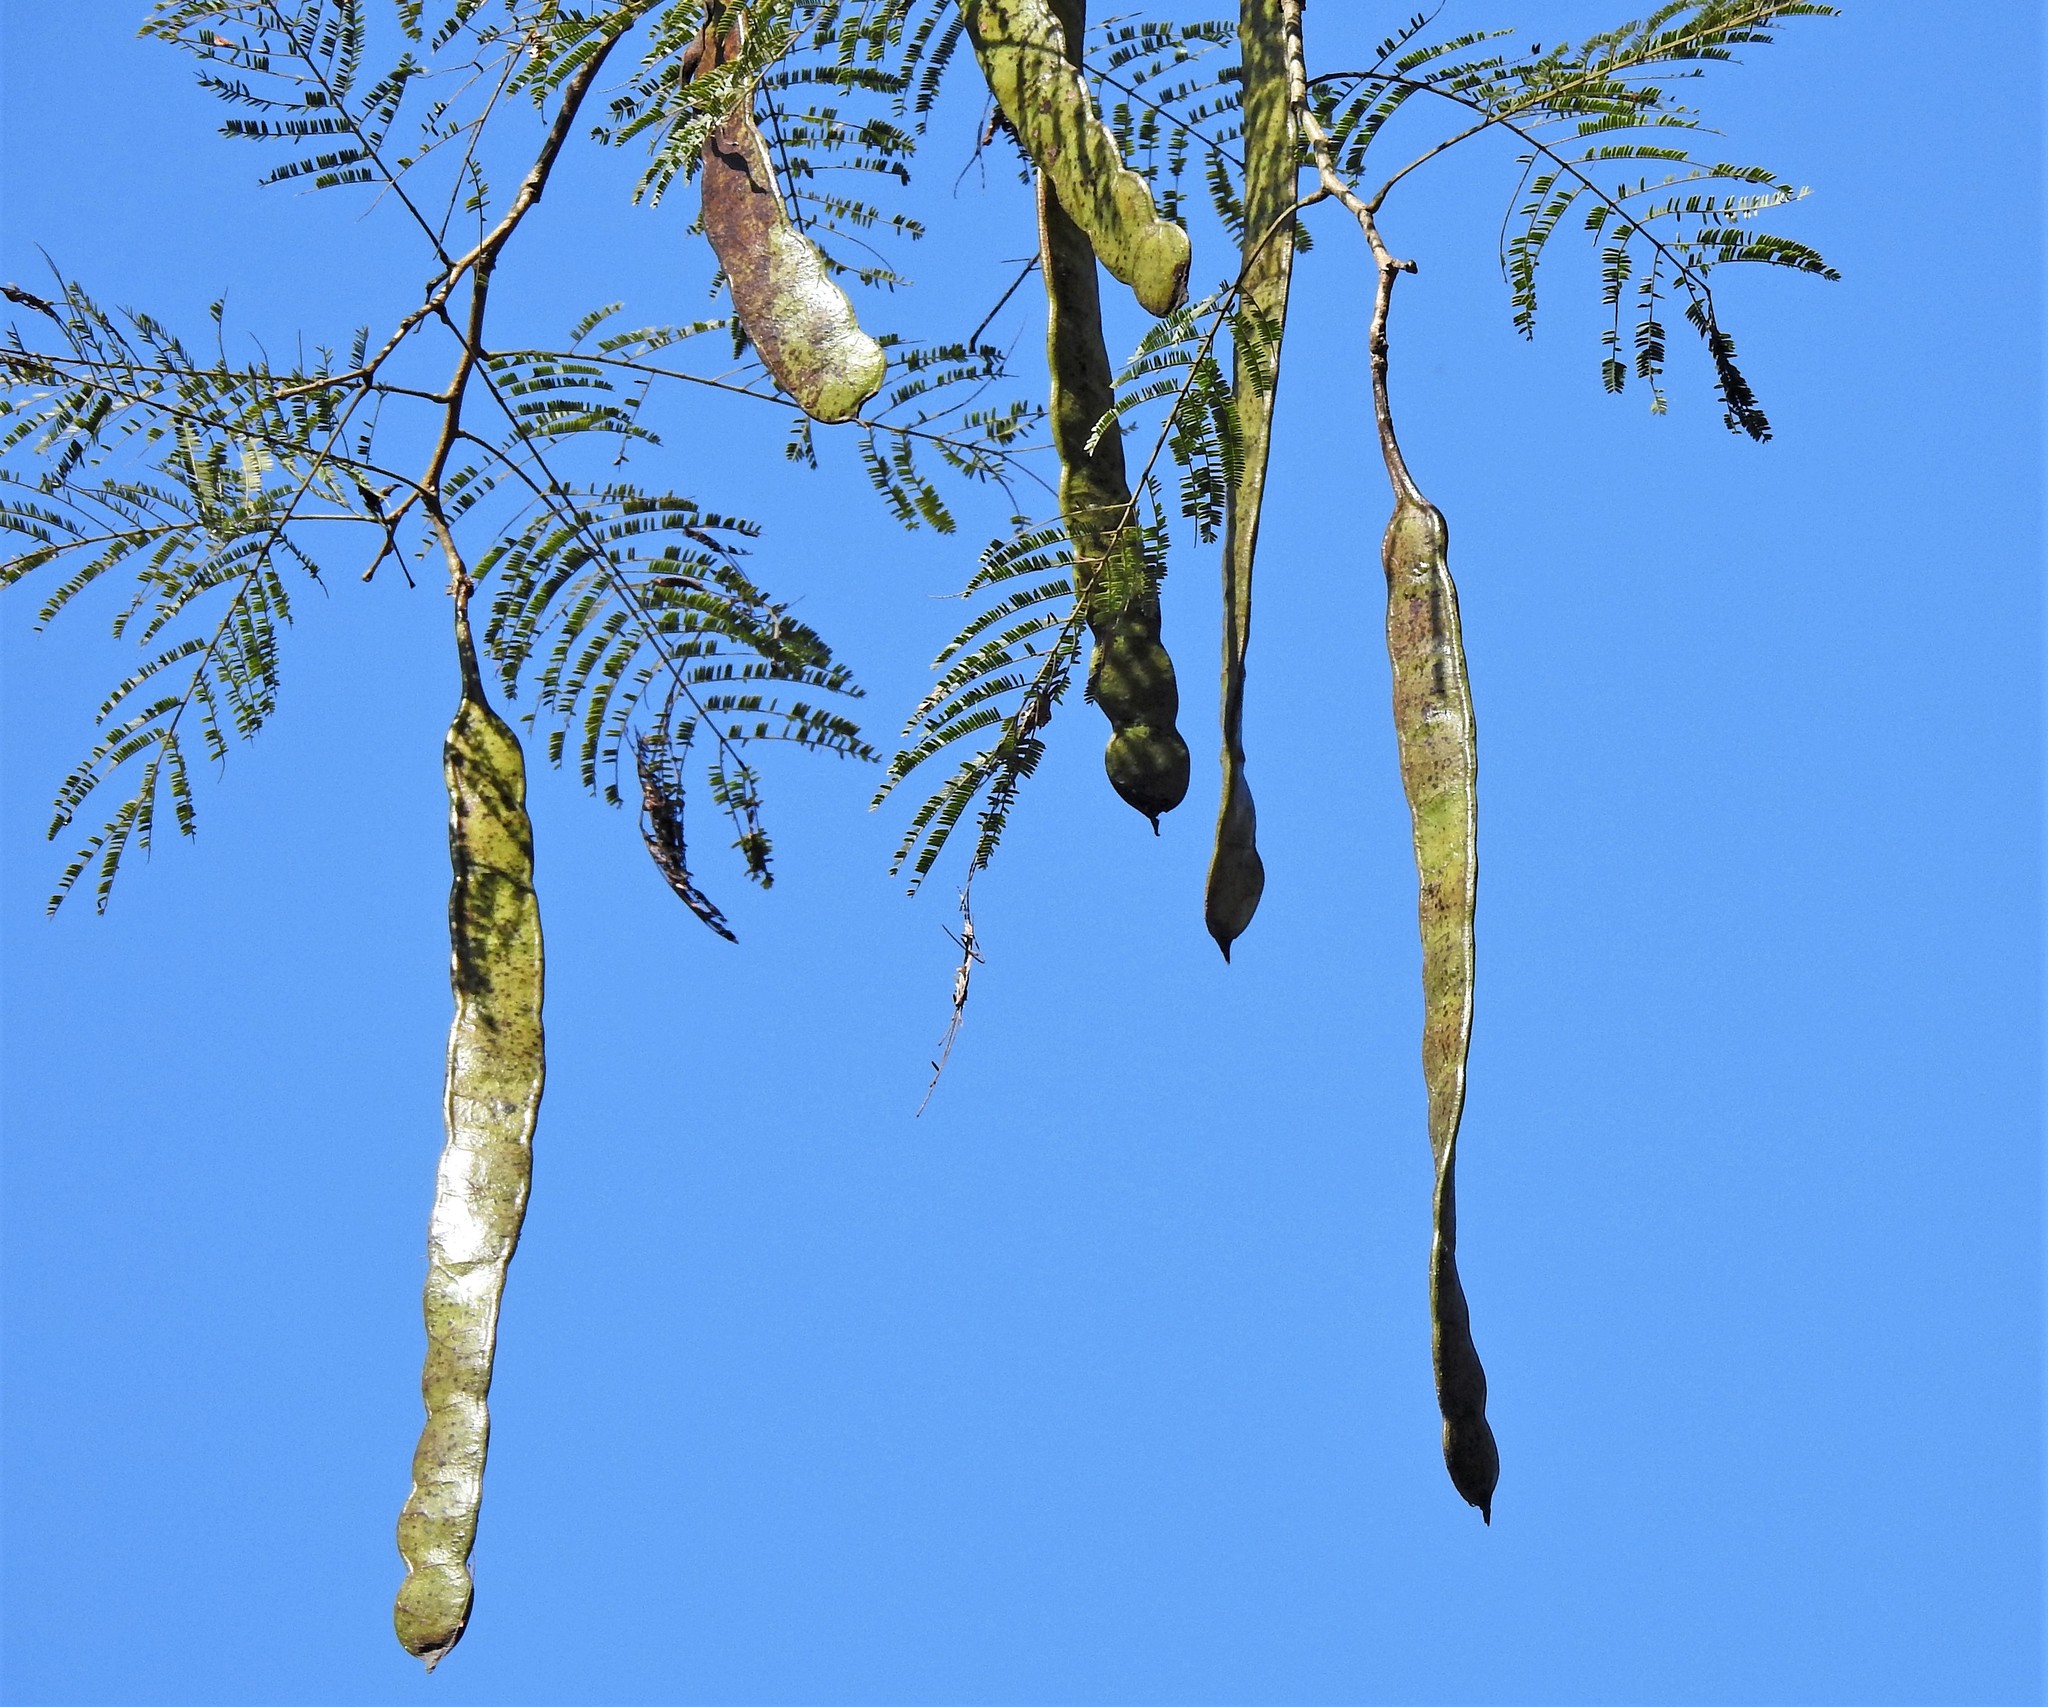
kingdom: Plantae
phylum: Tracheophyta
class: Magnoliopsida
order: Fabales
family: Fabaceae
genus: Anadenanthera
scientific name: Anadenanthera colubrina
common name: Curupay
